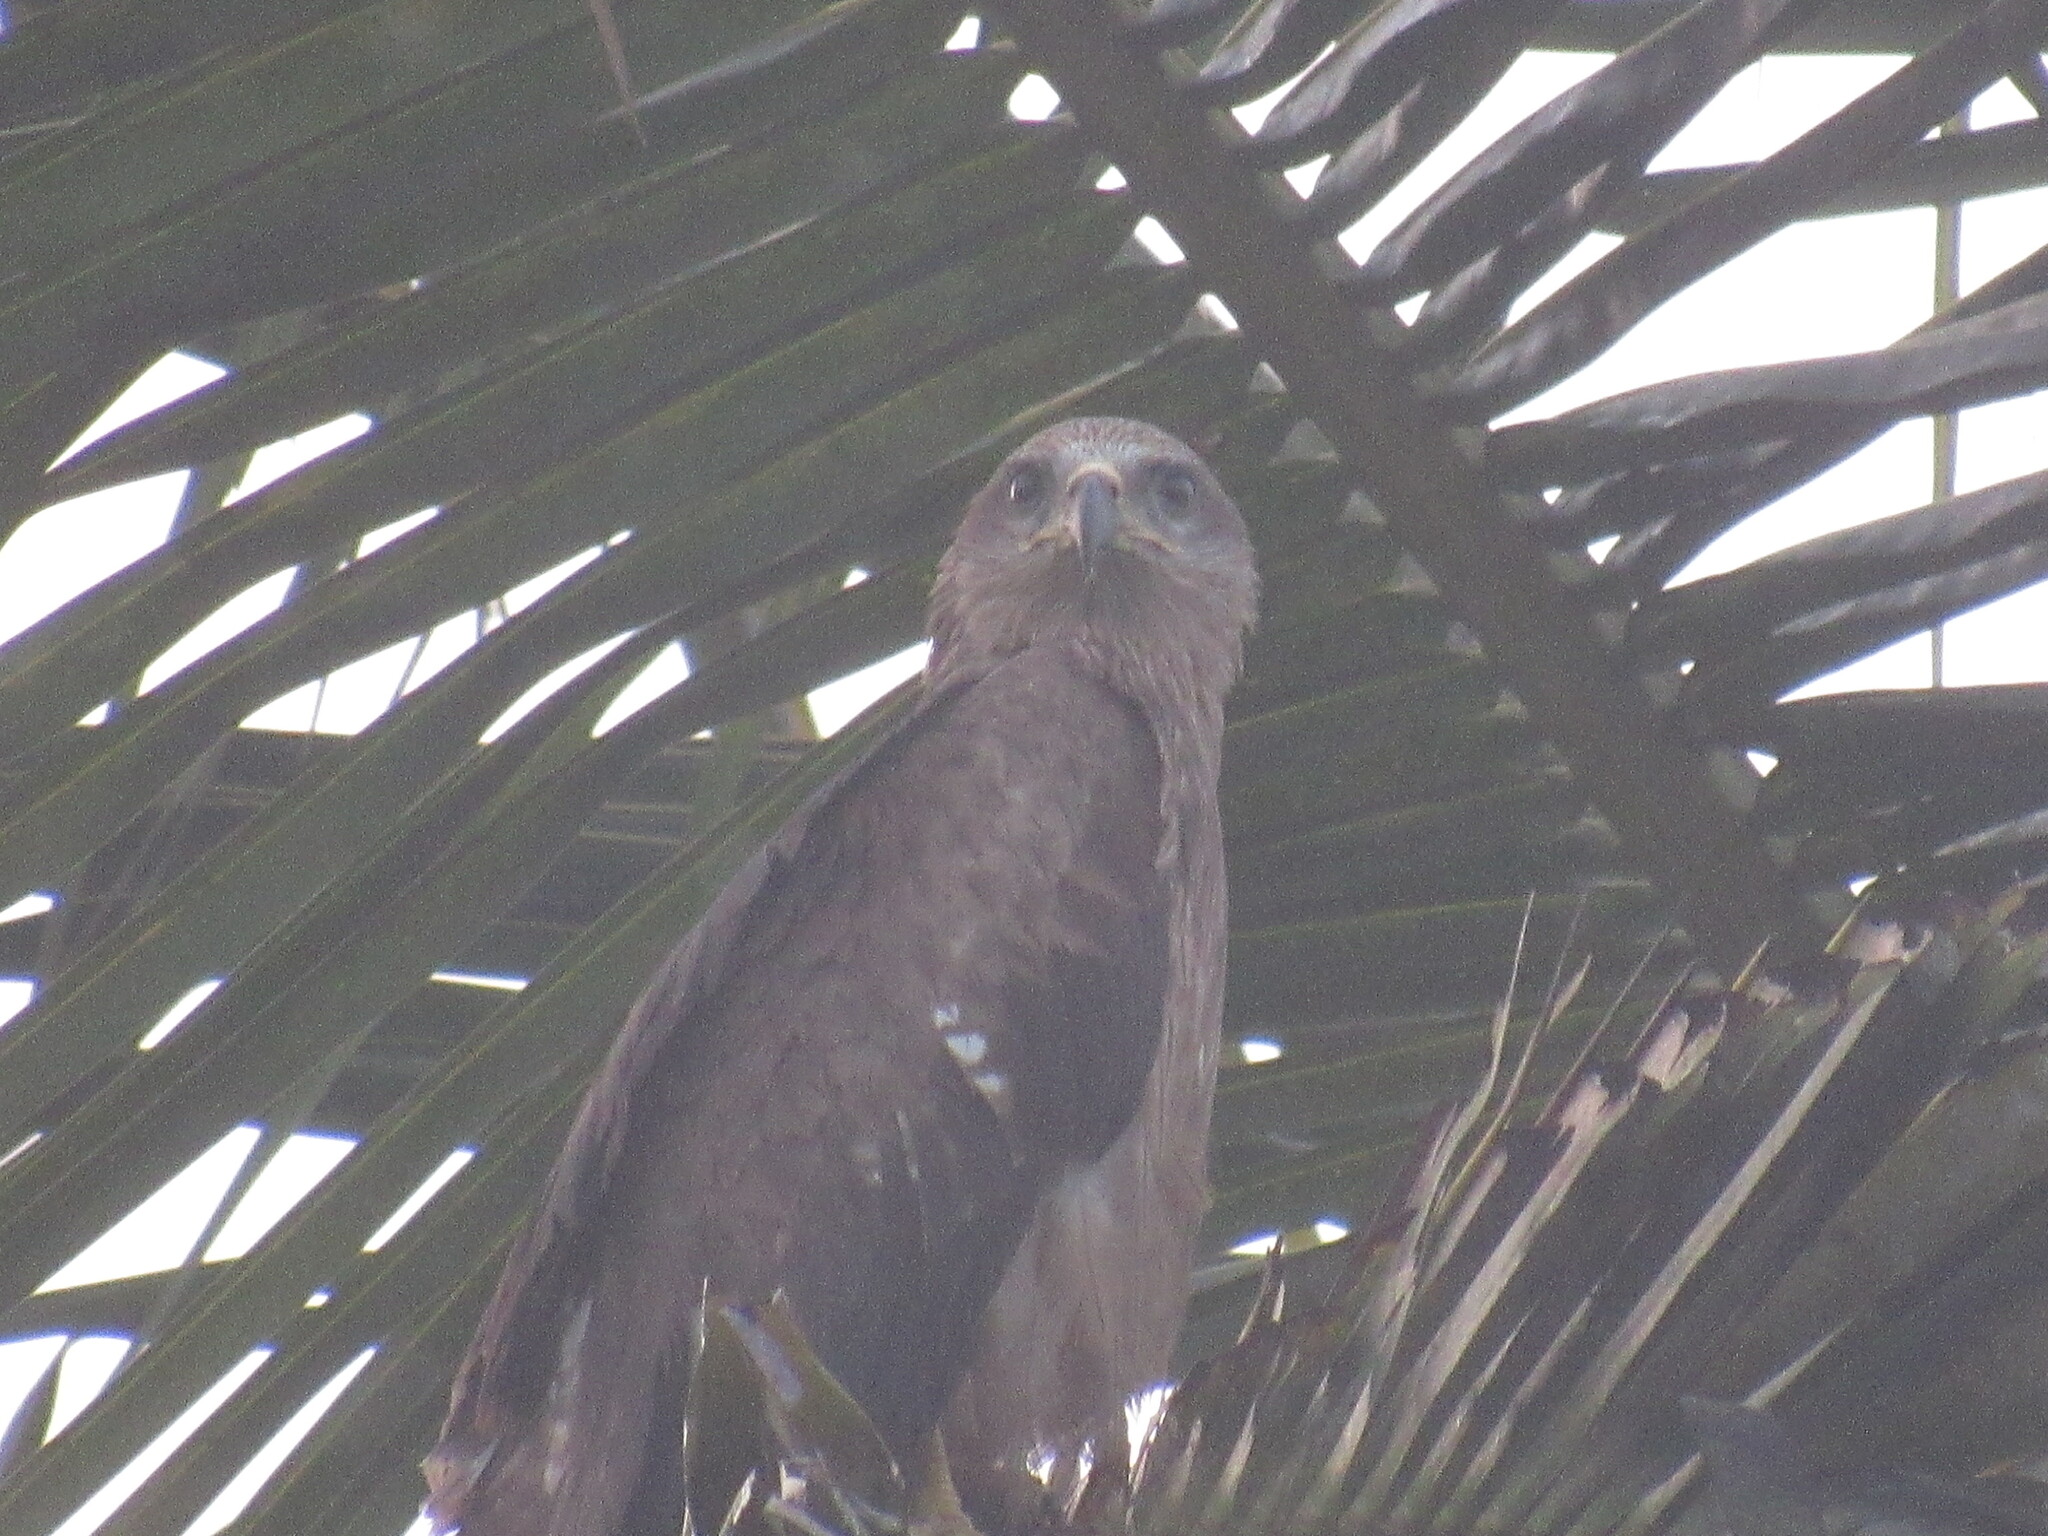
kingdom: Animalia
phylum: Chordata
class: Aves
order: Accipitriformes
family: Accipitridae
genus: Milvus
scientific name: Milvus migrans
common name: Black kite
